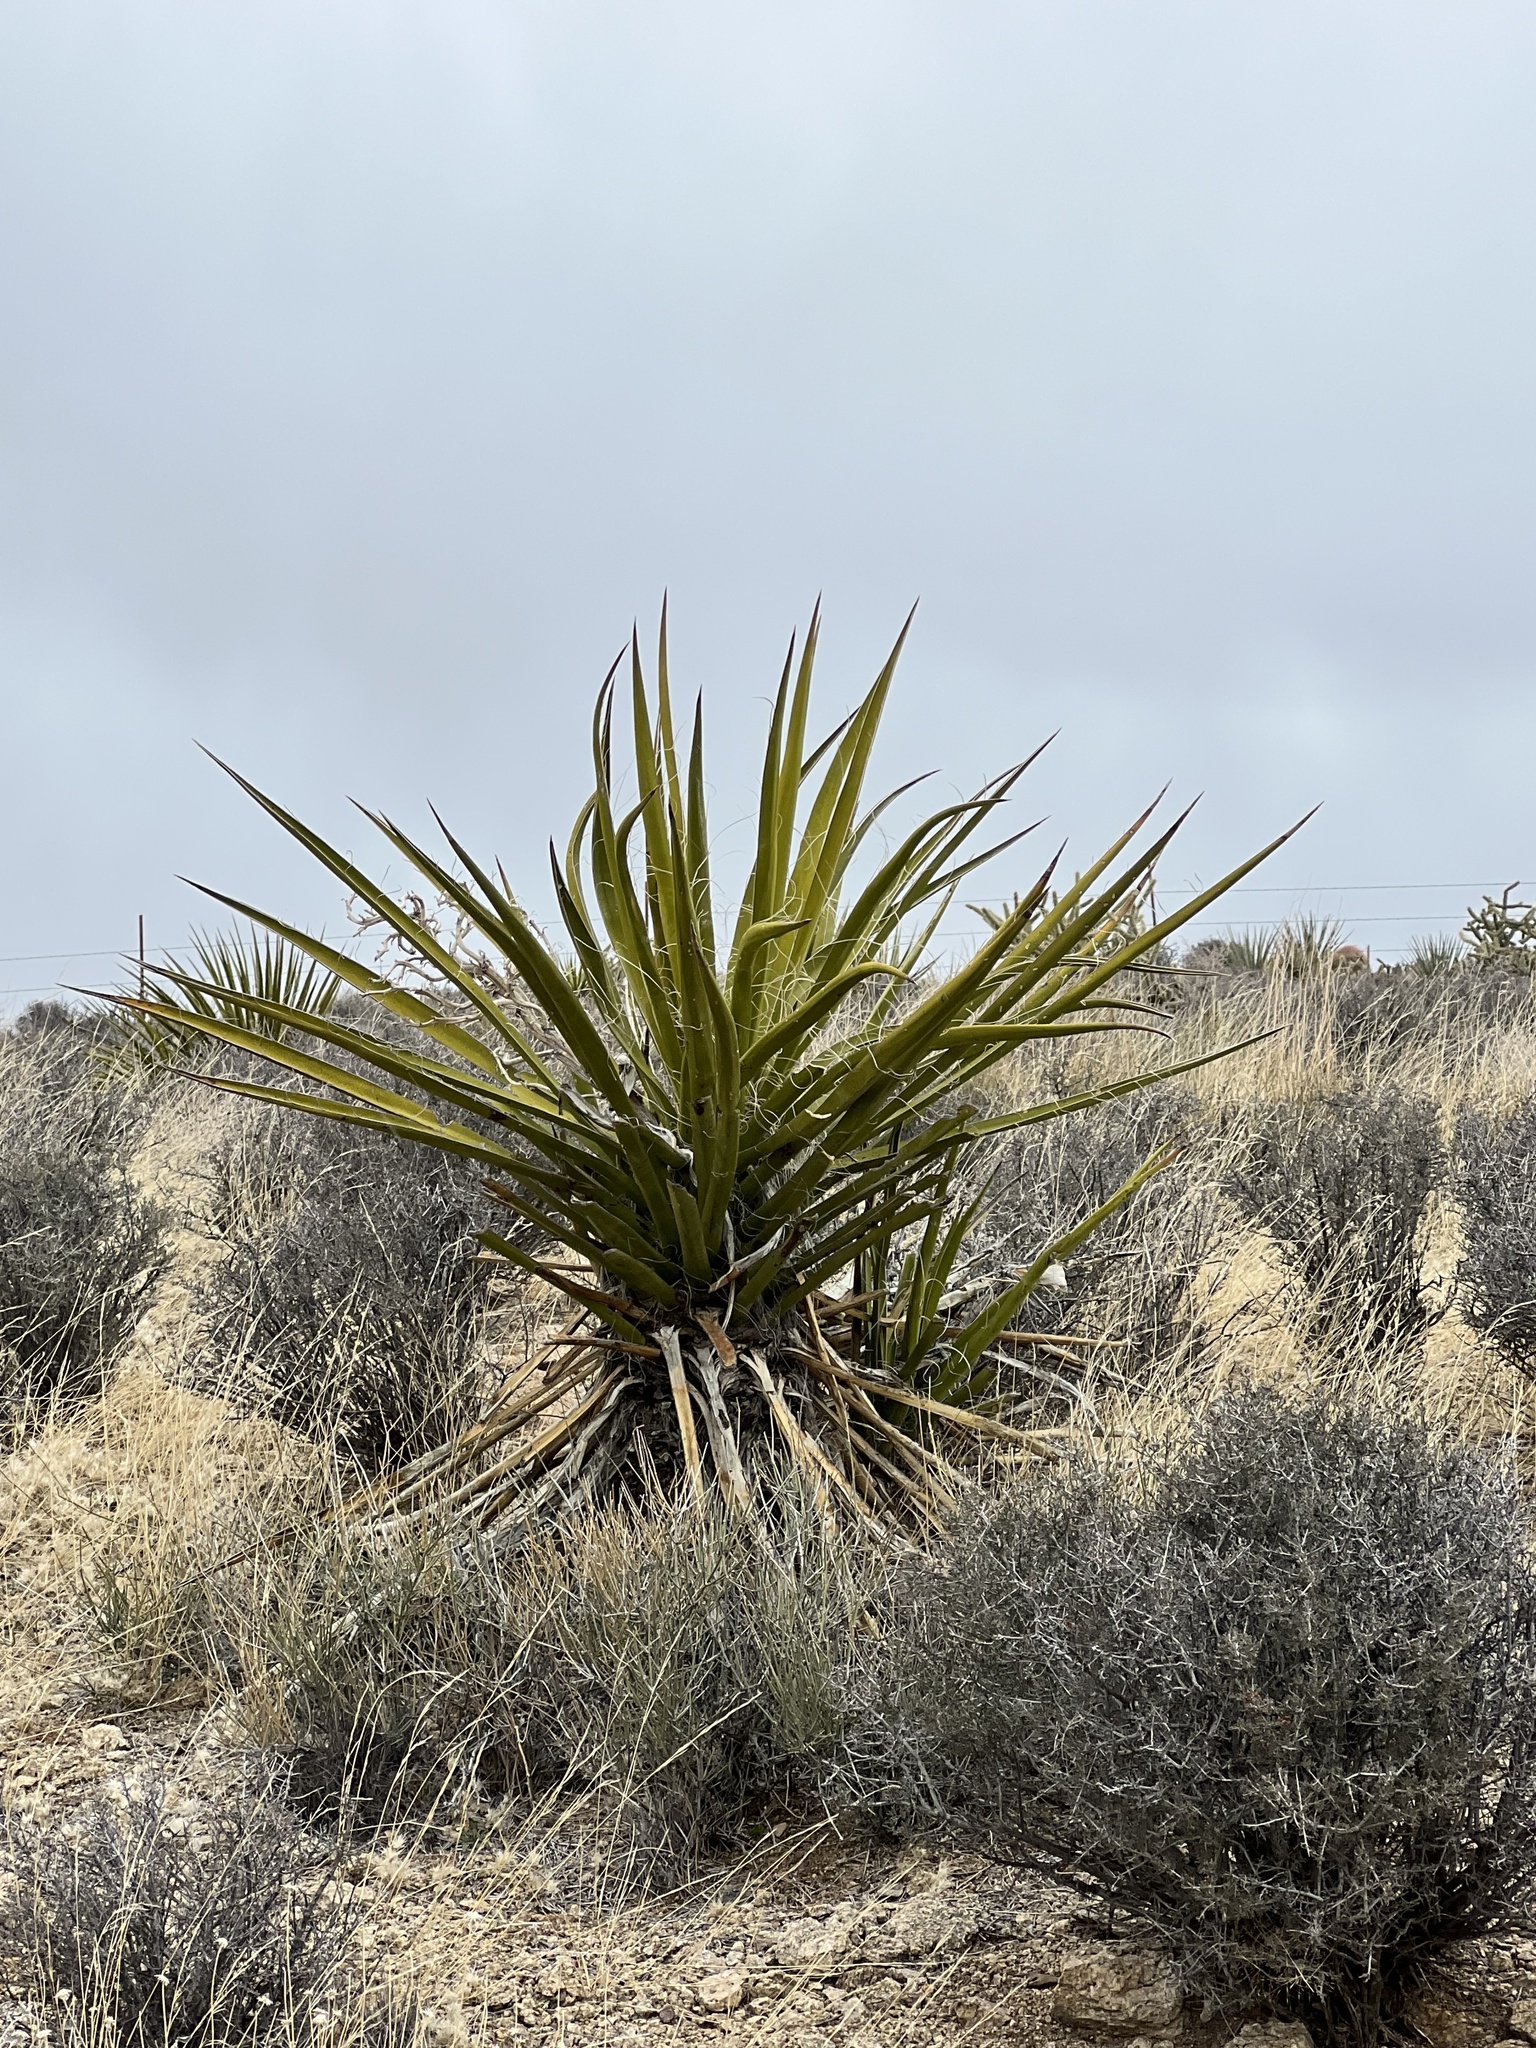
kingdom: Plantae
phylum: Tracheophyta
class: Liliopsida
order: Asparagales
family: Asparagaceae
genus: Yucca
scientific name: Yucca schidigera
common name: Mojave yucca
